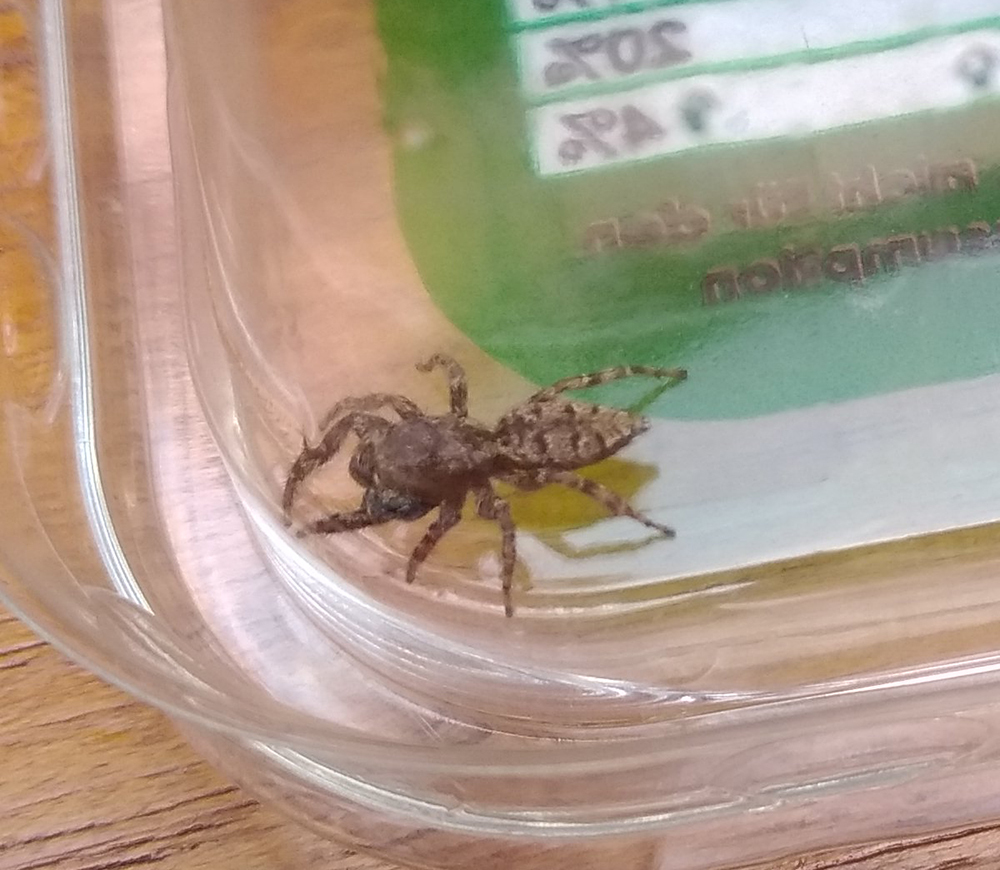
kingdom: Animalia
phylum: Arthropoda
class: Arachnida
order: Araneae
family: Salticidae
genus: Marpissa
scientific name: Marpissa muscosa
